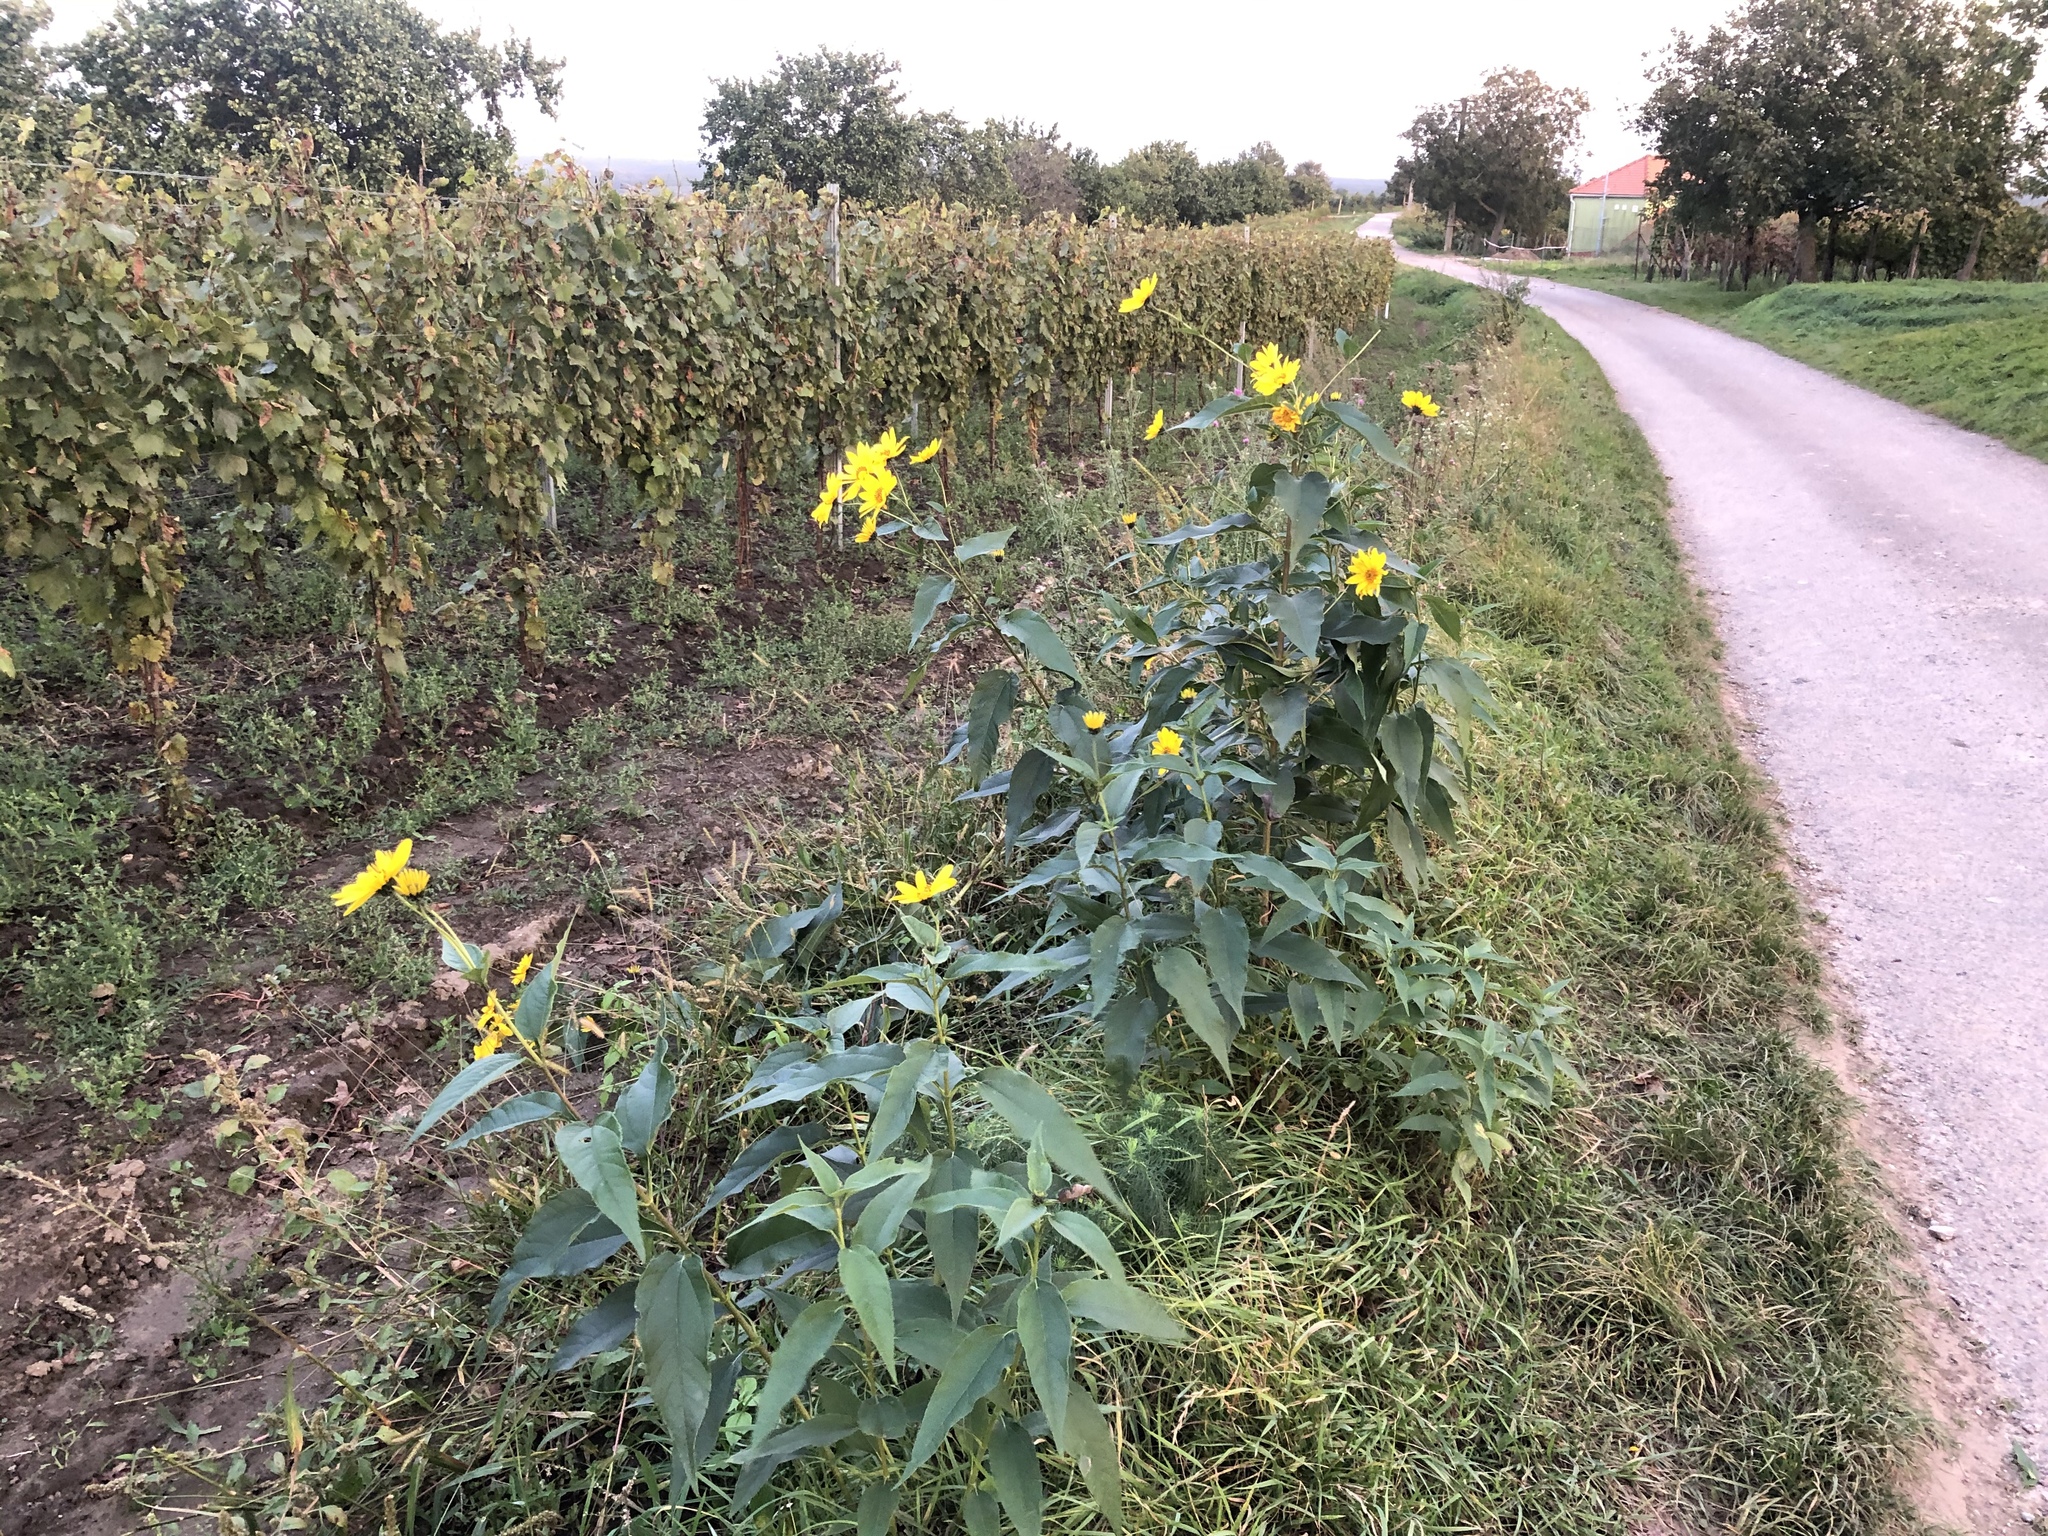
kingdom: Plantae
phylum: Tracheophyta
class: Magnoliopsida
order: Asterales
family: Asteraceae
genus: Helianthus
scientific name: Helianthus tuberosus
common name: Jerusalem artichoke
